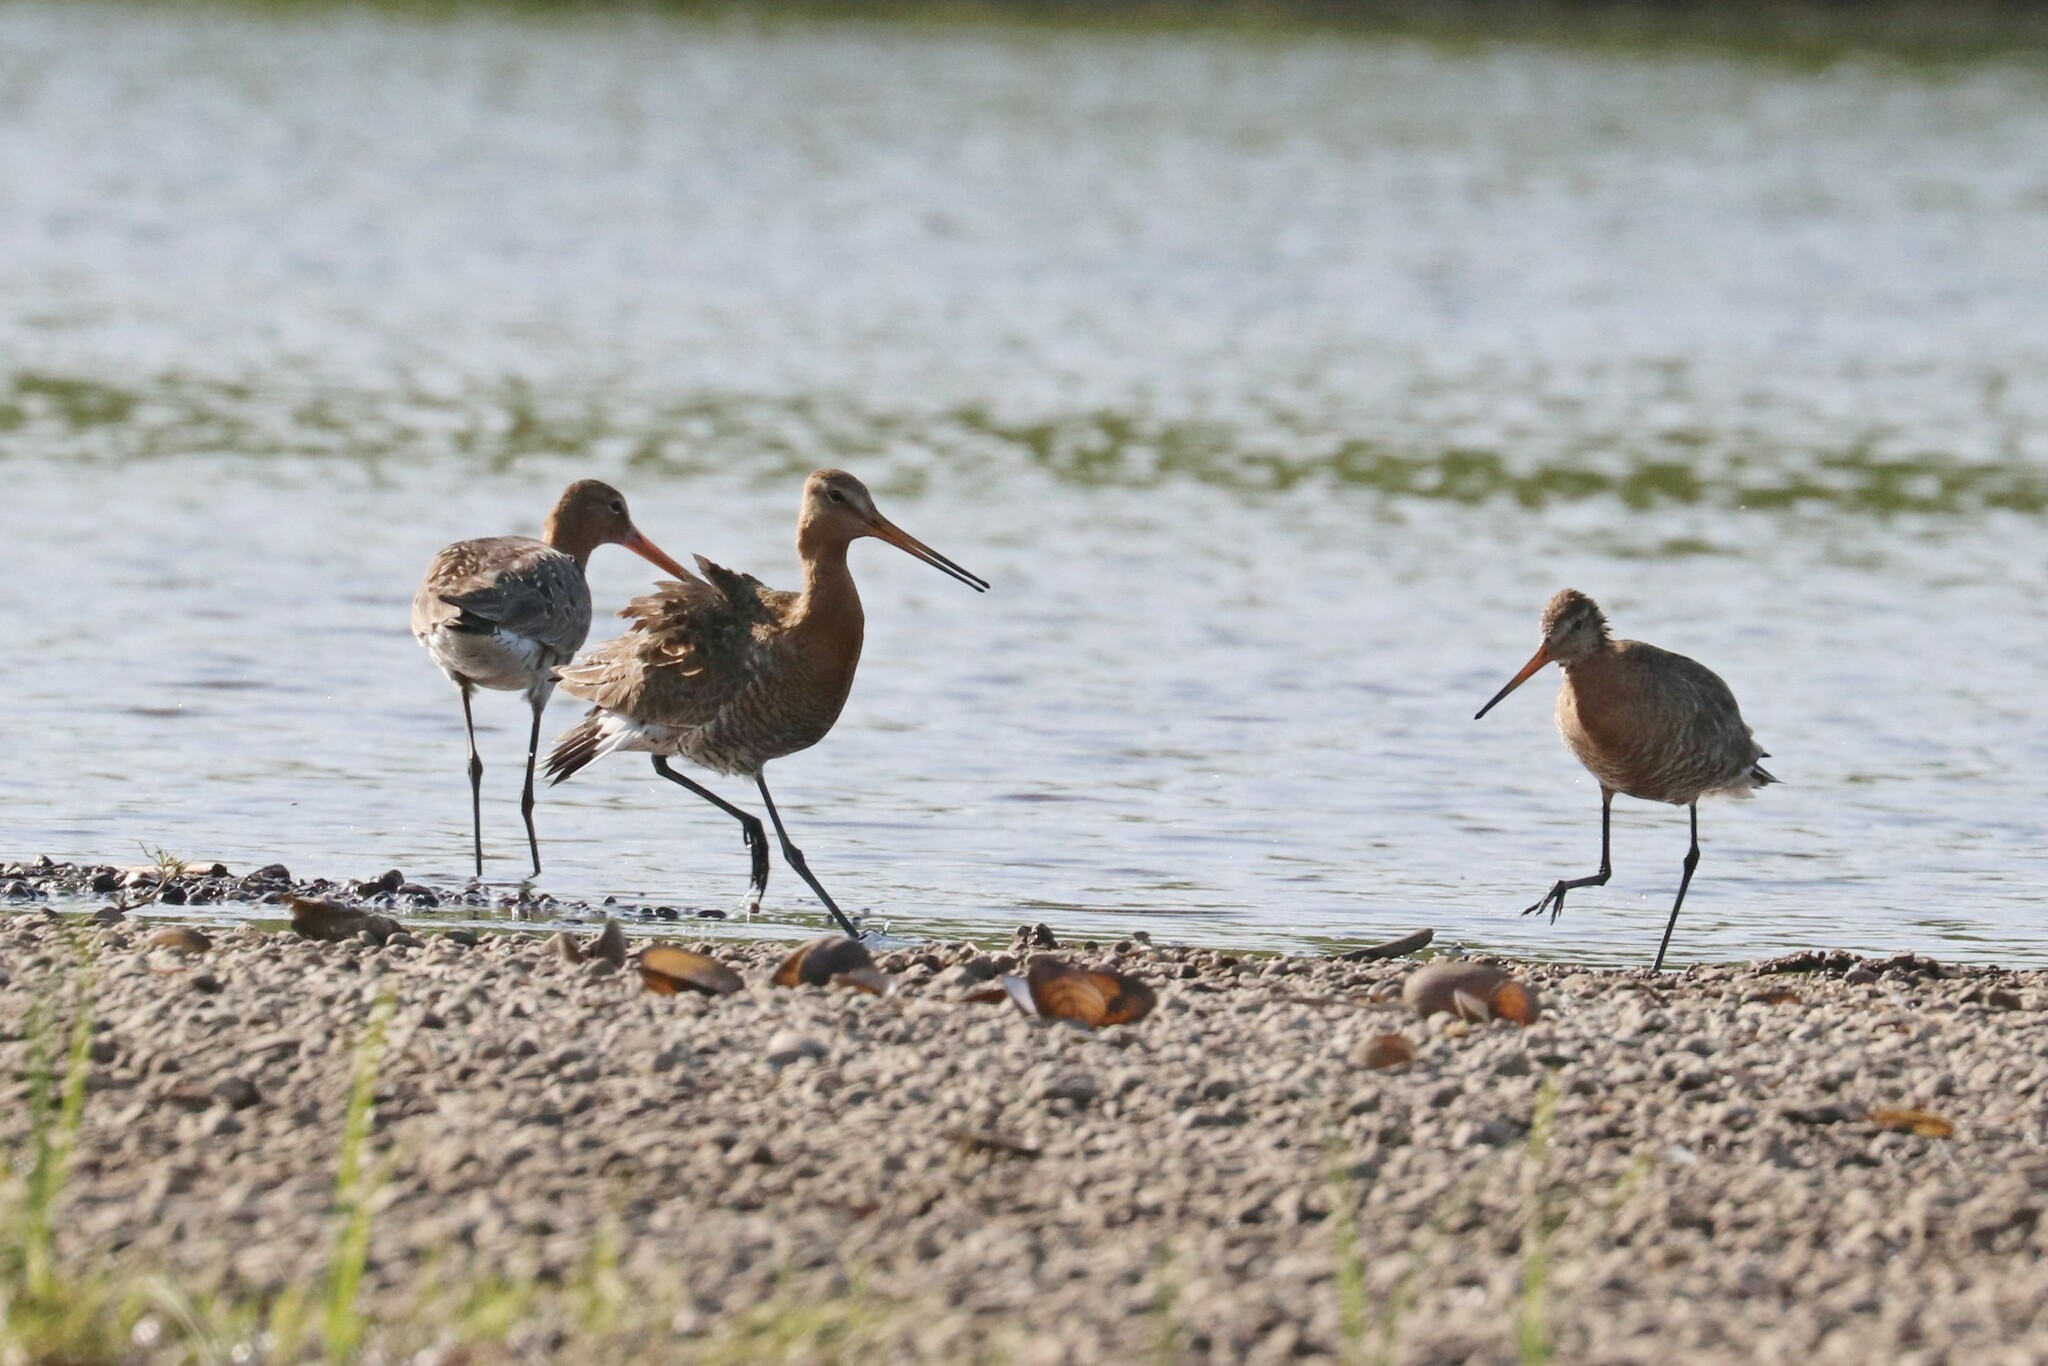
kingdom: Animalia
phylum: Chordata
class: Aves
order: Charadriiformes
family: Scolopacidae
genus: Limosa
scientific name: Limosa limosa
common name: Black-tailed godwit
